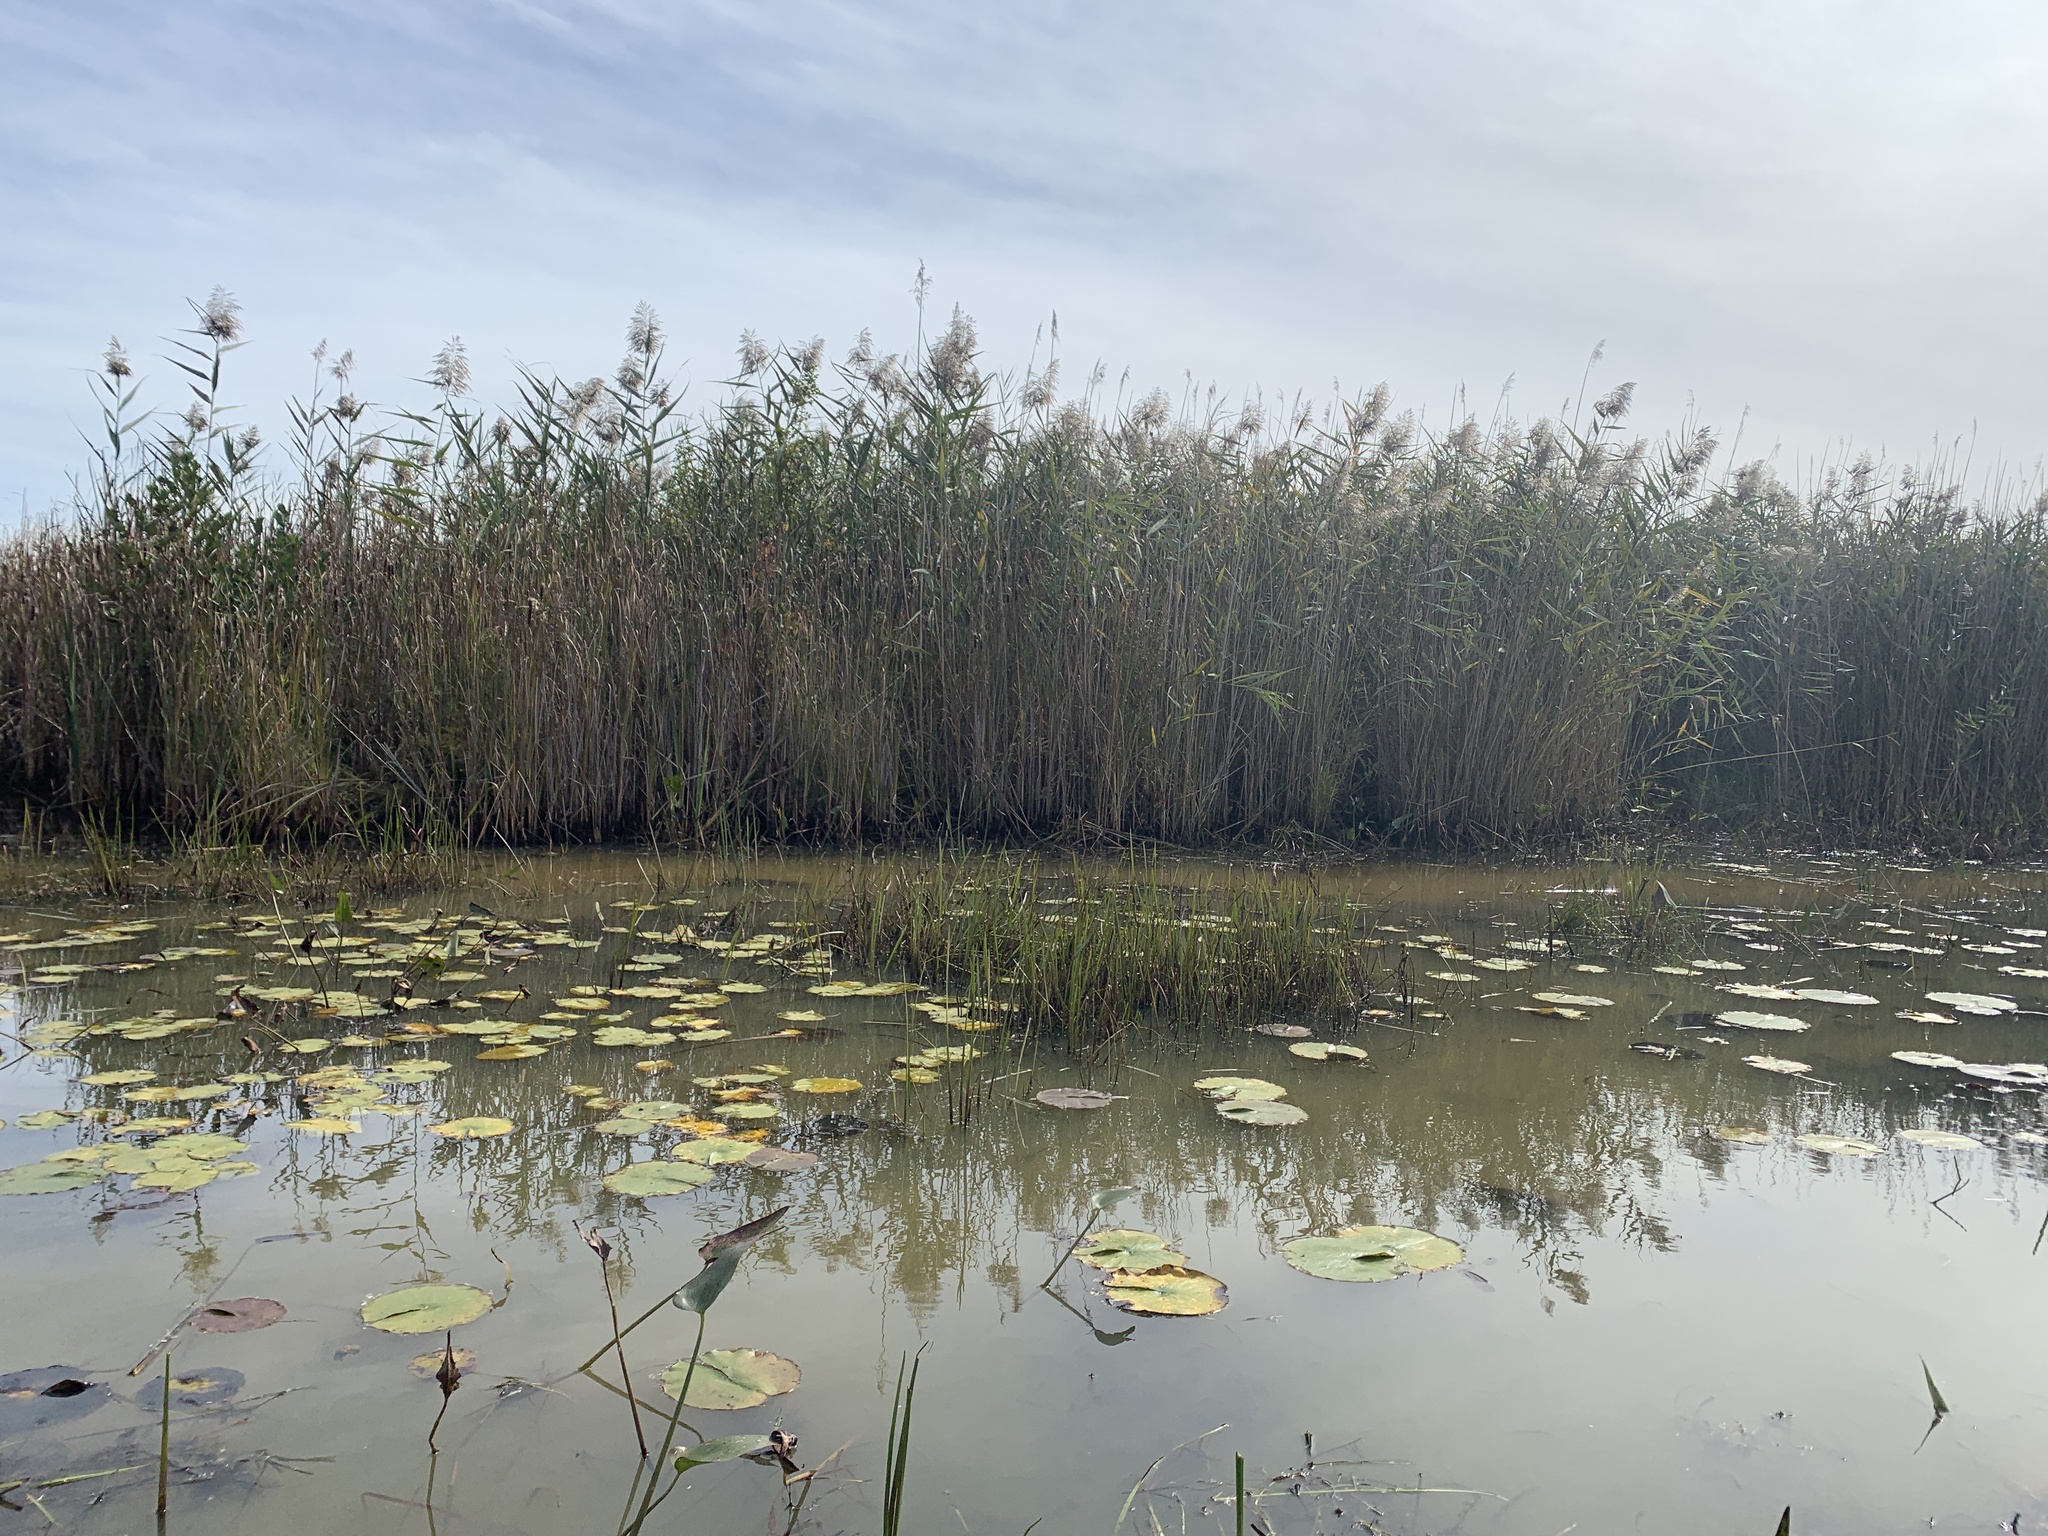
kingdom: Plantae
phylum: Tracheophyta
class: Liliopsida
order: Poales
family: Poaceae
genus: Phragmites
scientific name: Phragmites australis
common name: Common reed
